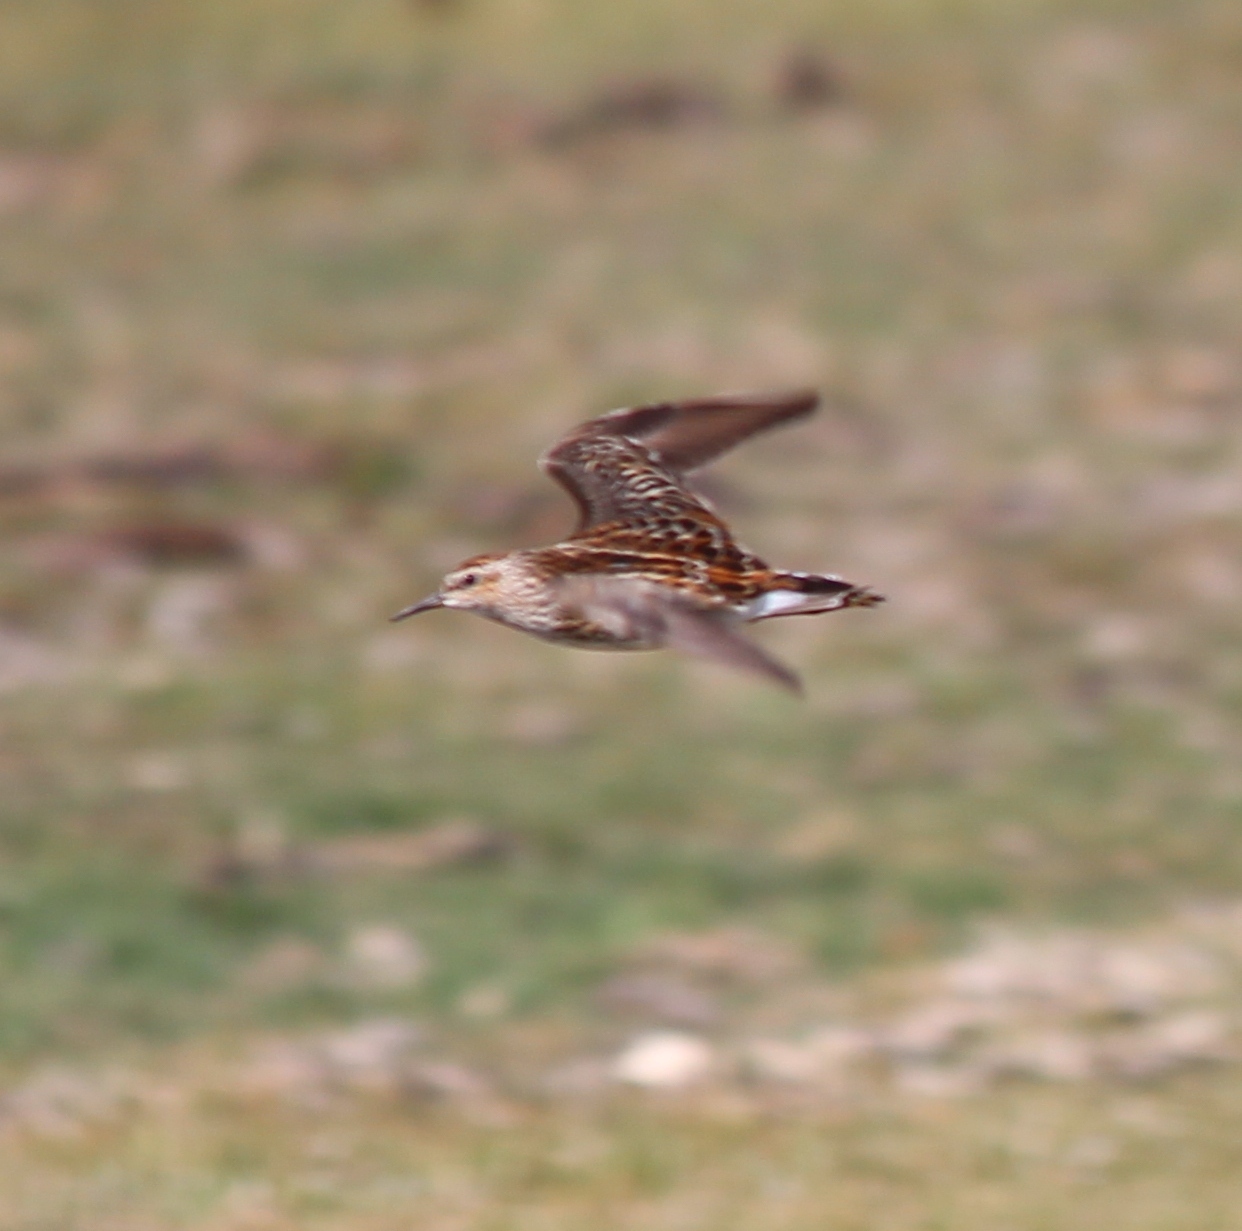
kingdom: Animalia
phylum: Chordata
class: Aves
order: Charadriiformes
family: Scolopacidae
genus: Calidris
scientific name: Calidris subminuta
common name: Long-toed stint
